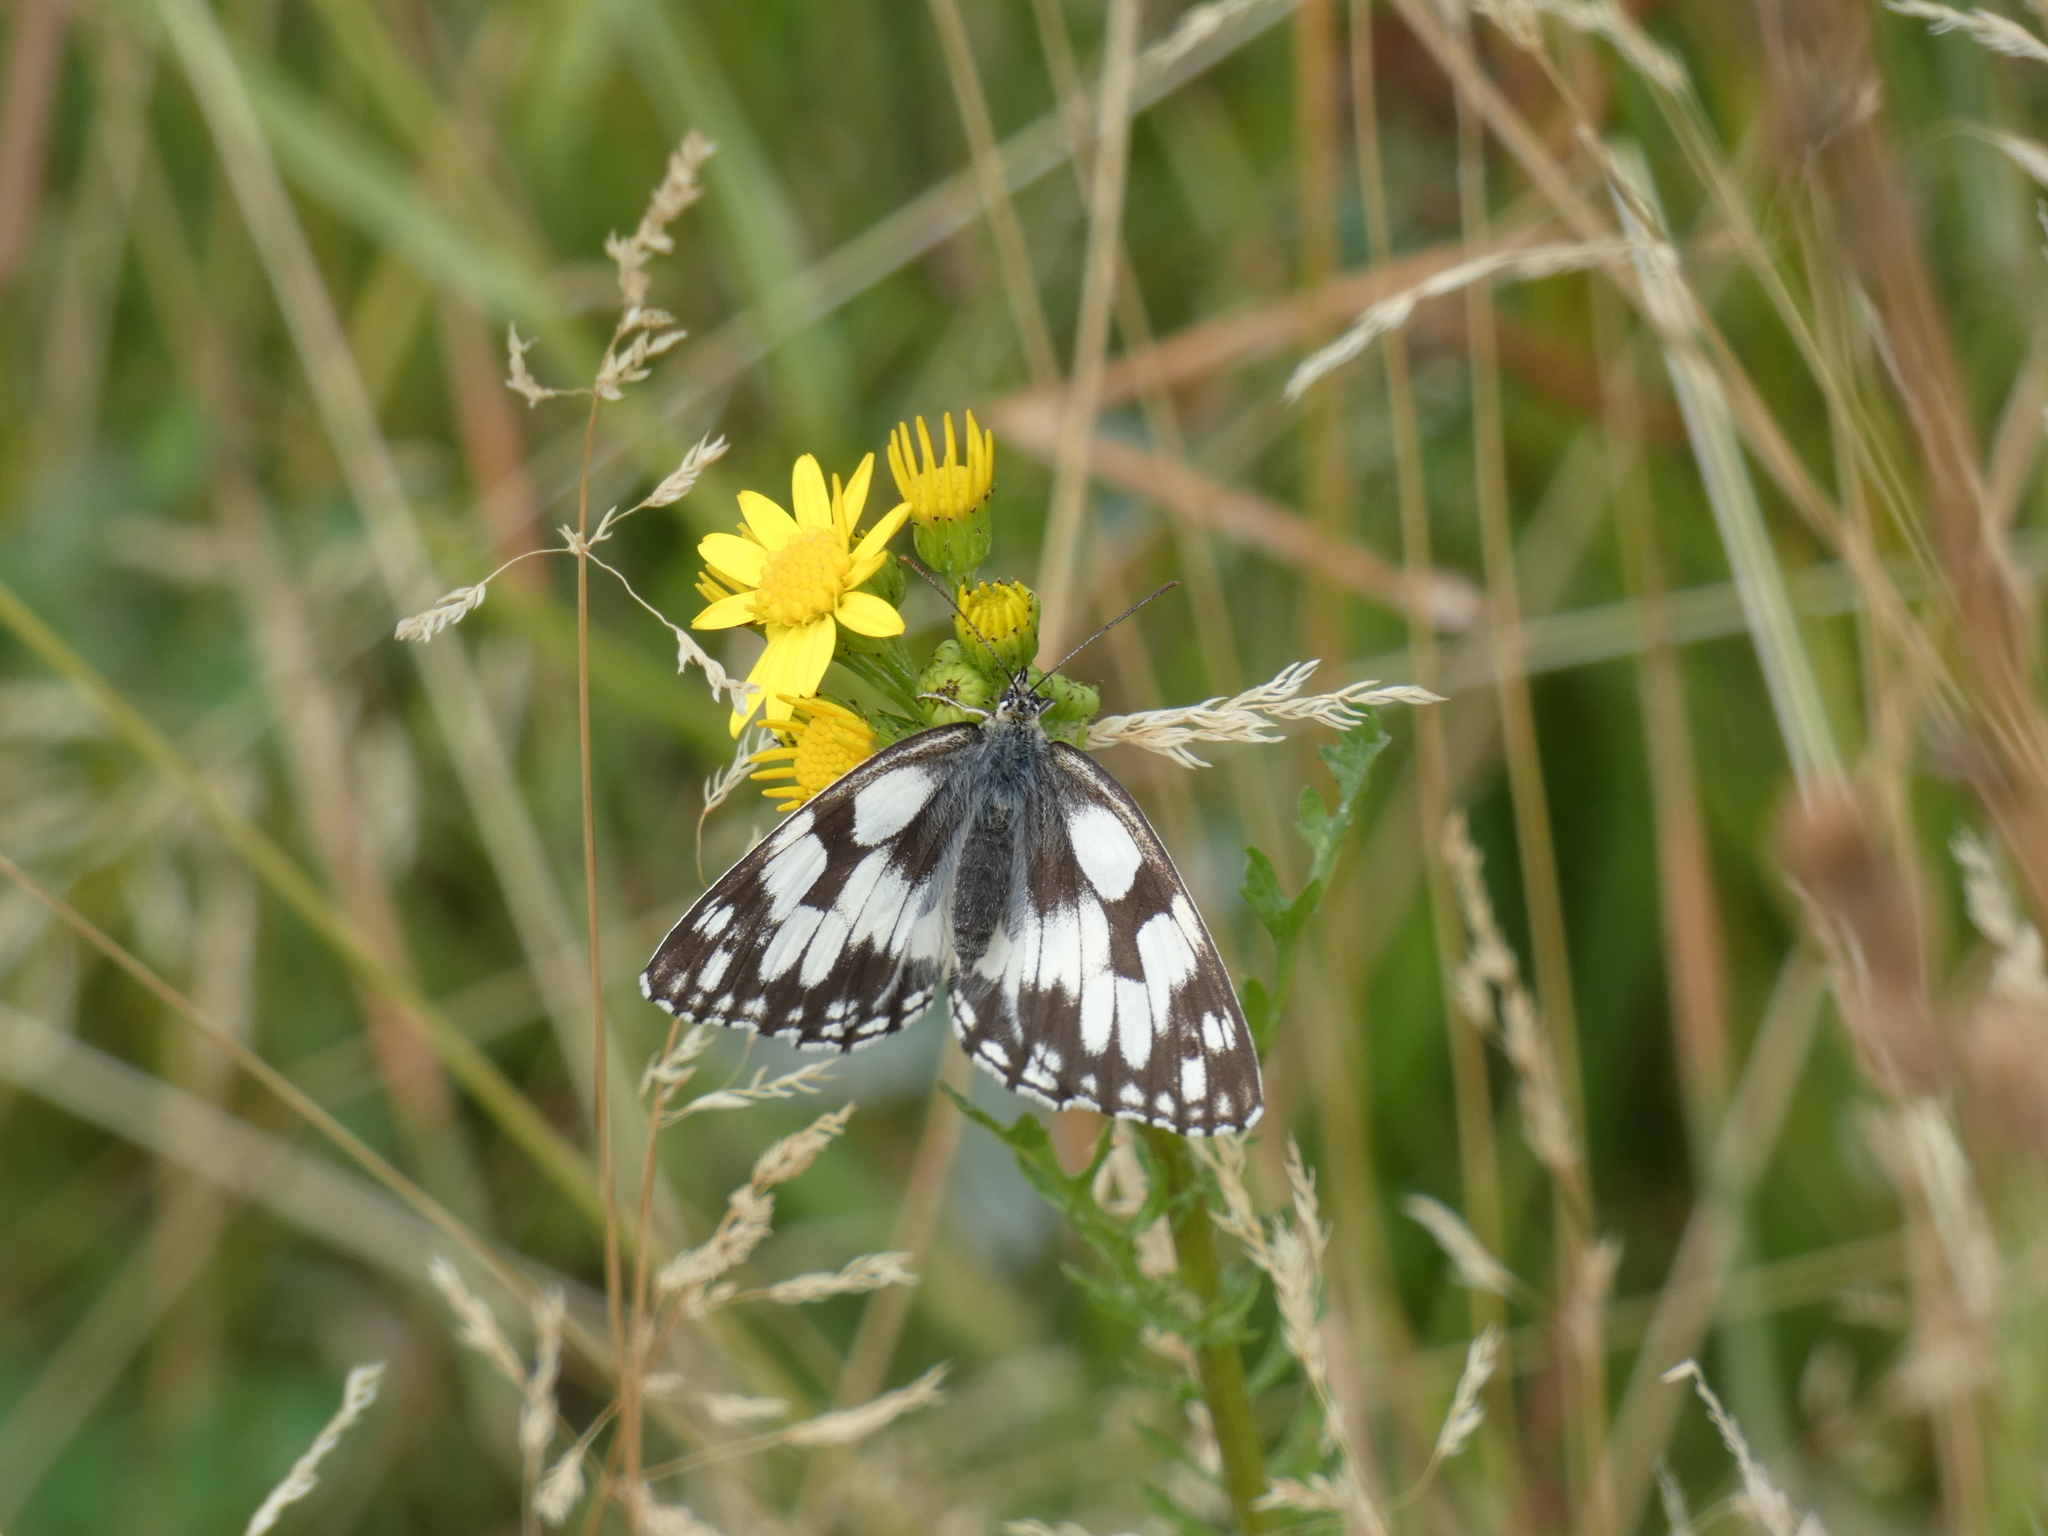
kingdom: Animalia
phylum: Arthropoda
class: Insecta
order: Lepidoptera
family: Nymphalidae
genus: Melanargia
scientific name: Melanargia galathea
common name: Marbled white
